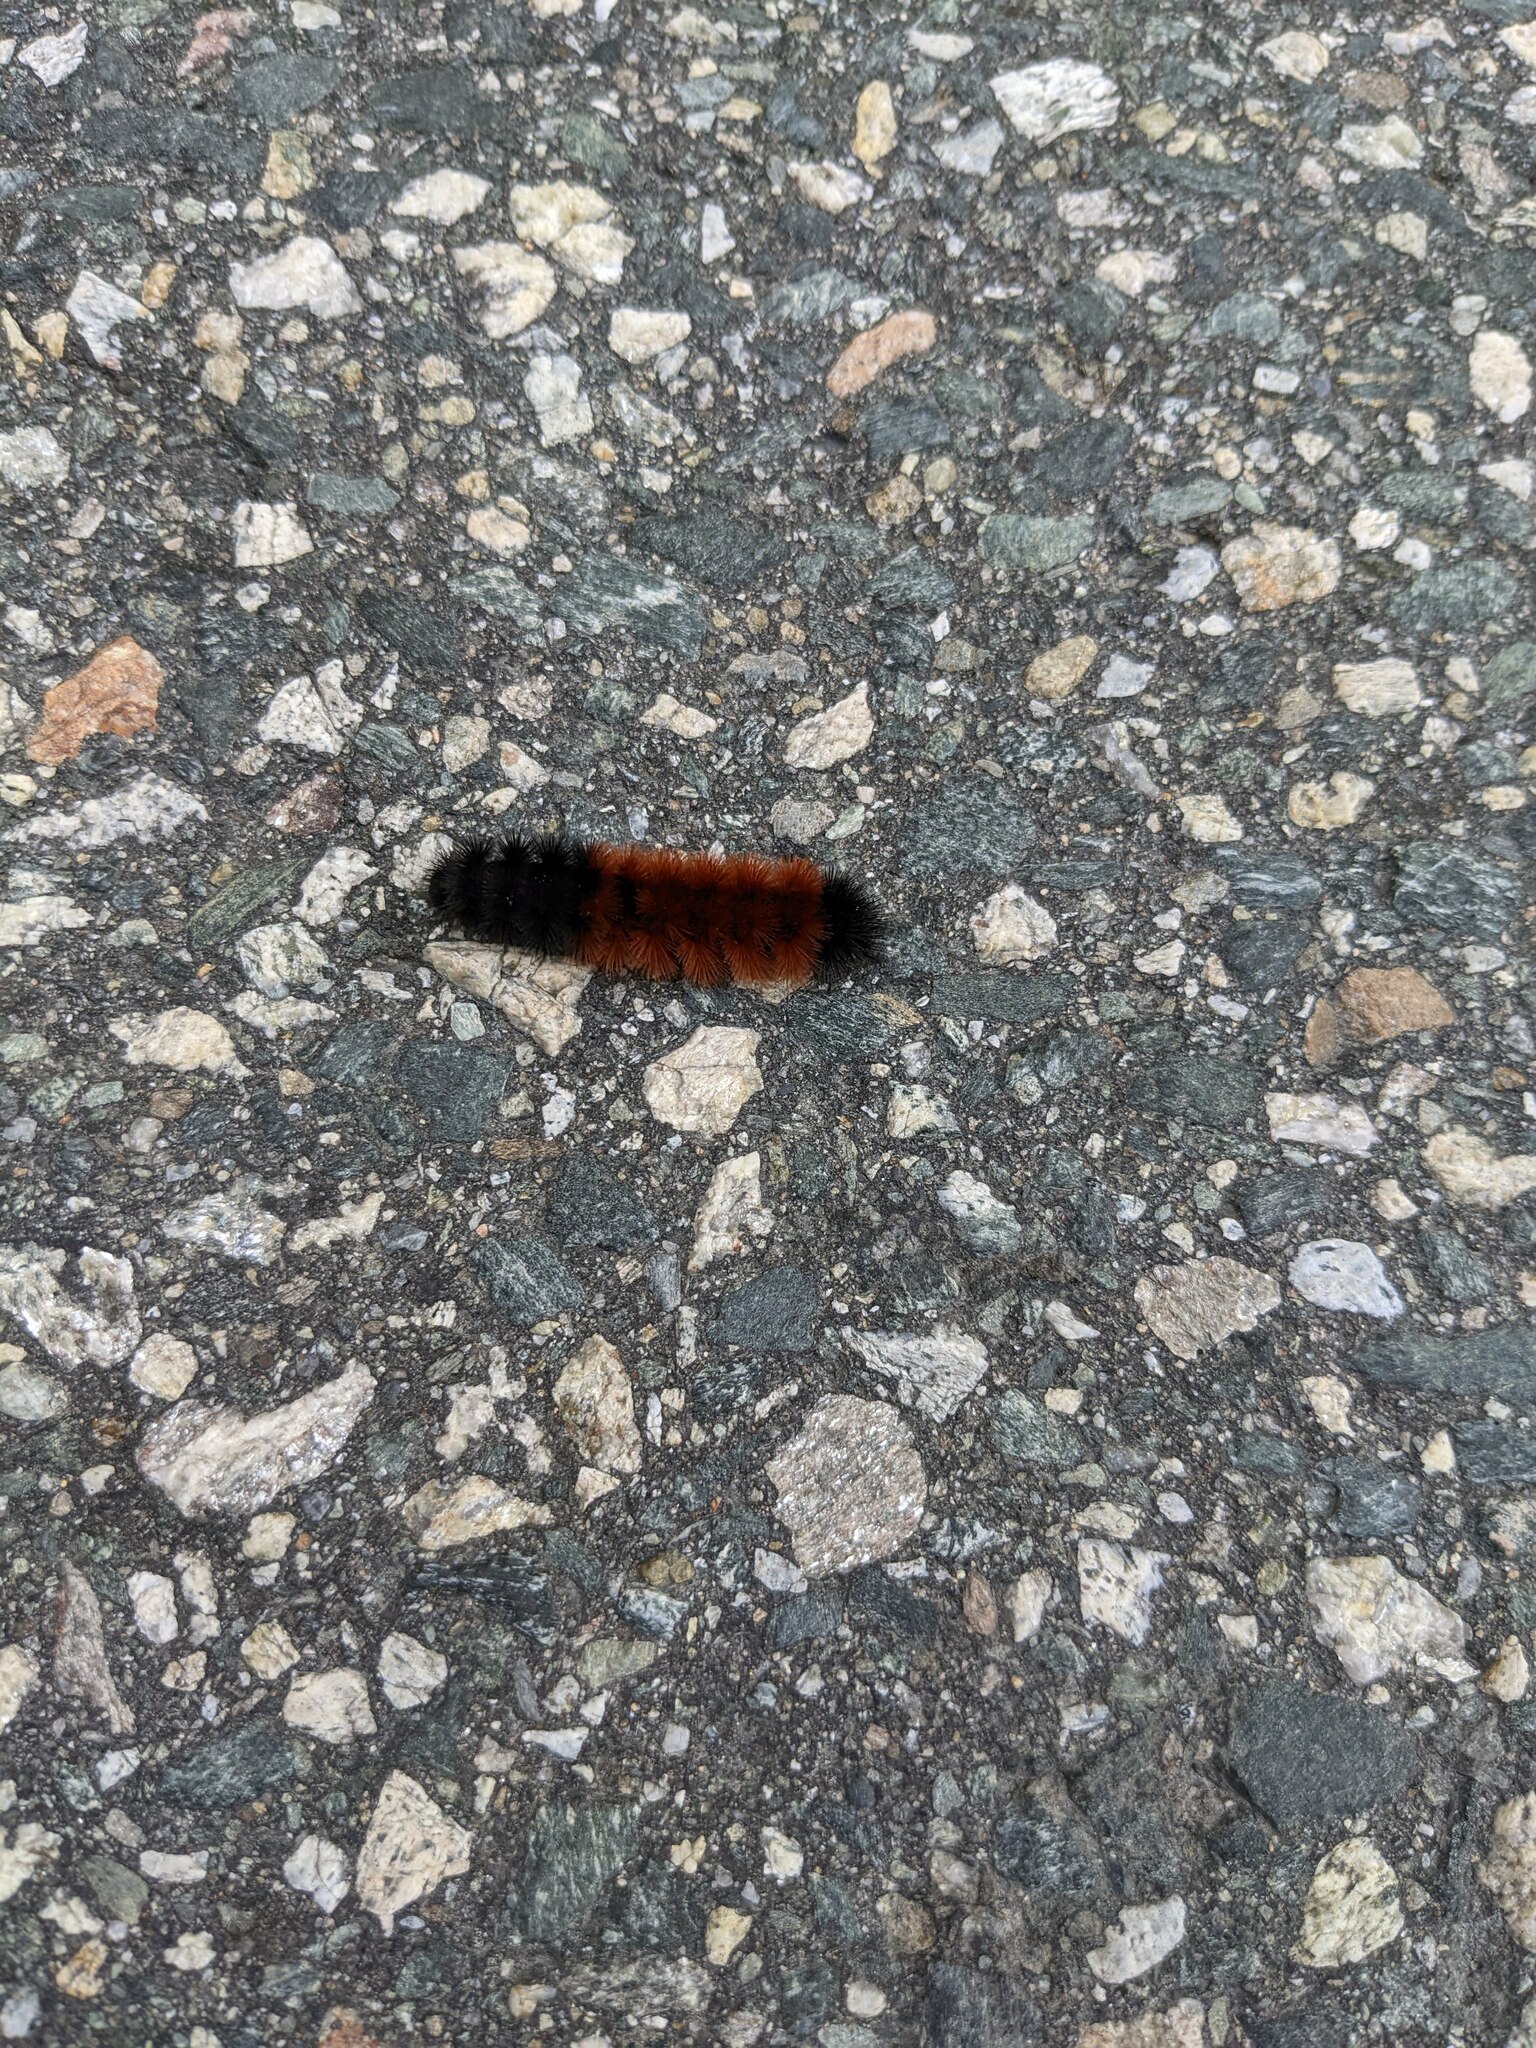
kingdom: Animalia
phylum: Arthropoda
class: Insecta
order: Lepidoptera
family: Erebidae
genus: Pyrrharctia
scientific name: Pyrrharctia isabella
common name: Isabella tiger moth
